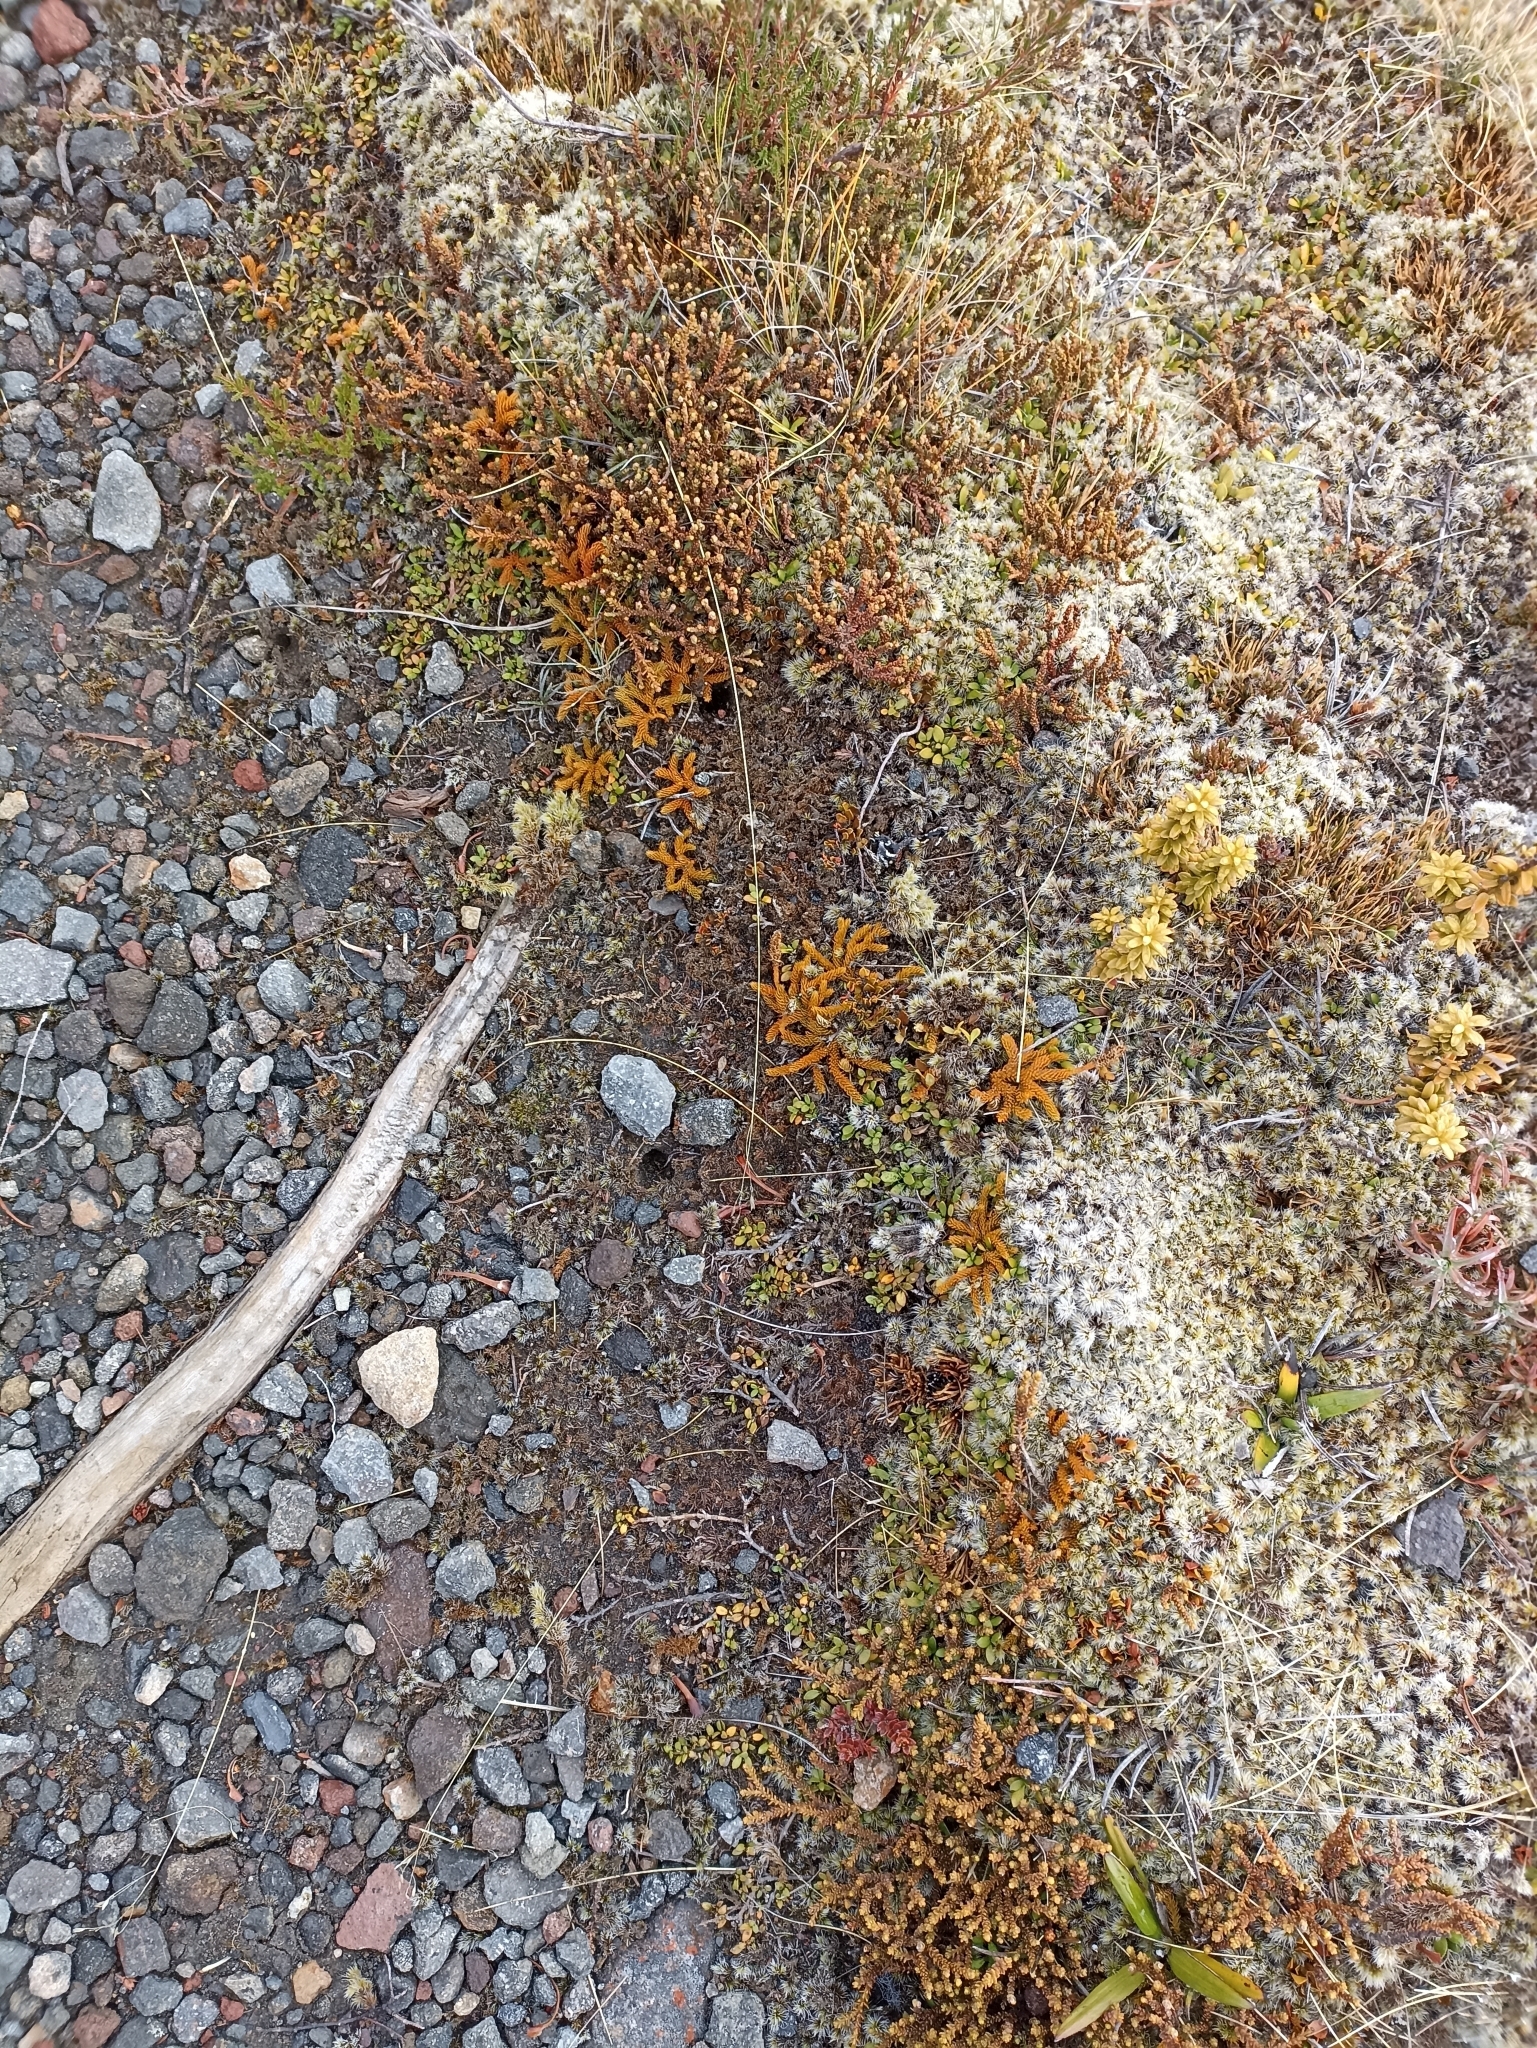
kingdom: Plantae
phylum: Tracheophyta
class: Lycopodiopsida
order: Lycopodiales
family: Lycopodiaceae
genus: Austrolycopodium
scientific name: Austrolycopodium fastigiatum
